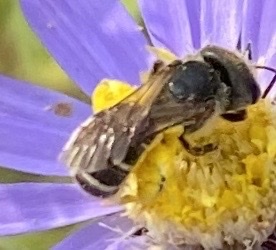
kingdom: Animalia
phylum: Arthropoda
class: Insecta
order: Hymenoptera
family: Halictidae
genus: Halictus
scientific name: Halictus ligatus
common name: Ligated furrow bee
